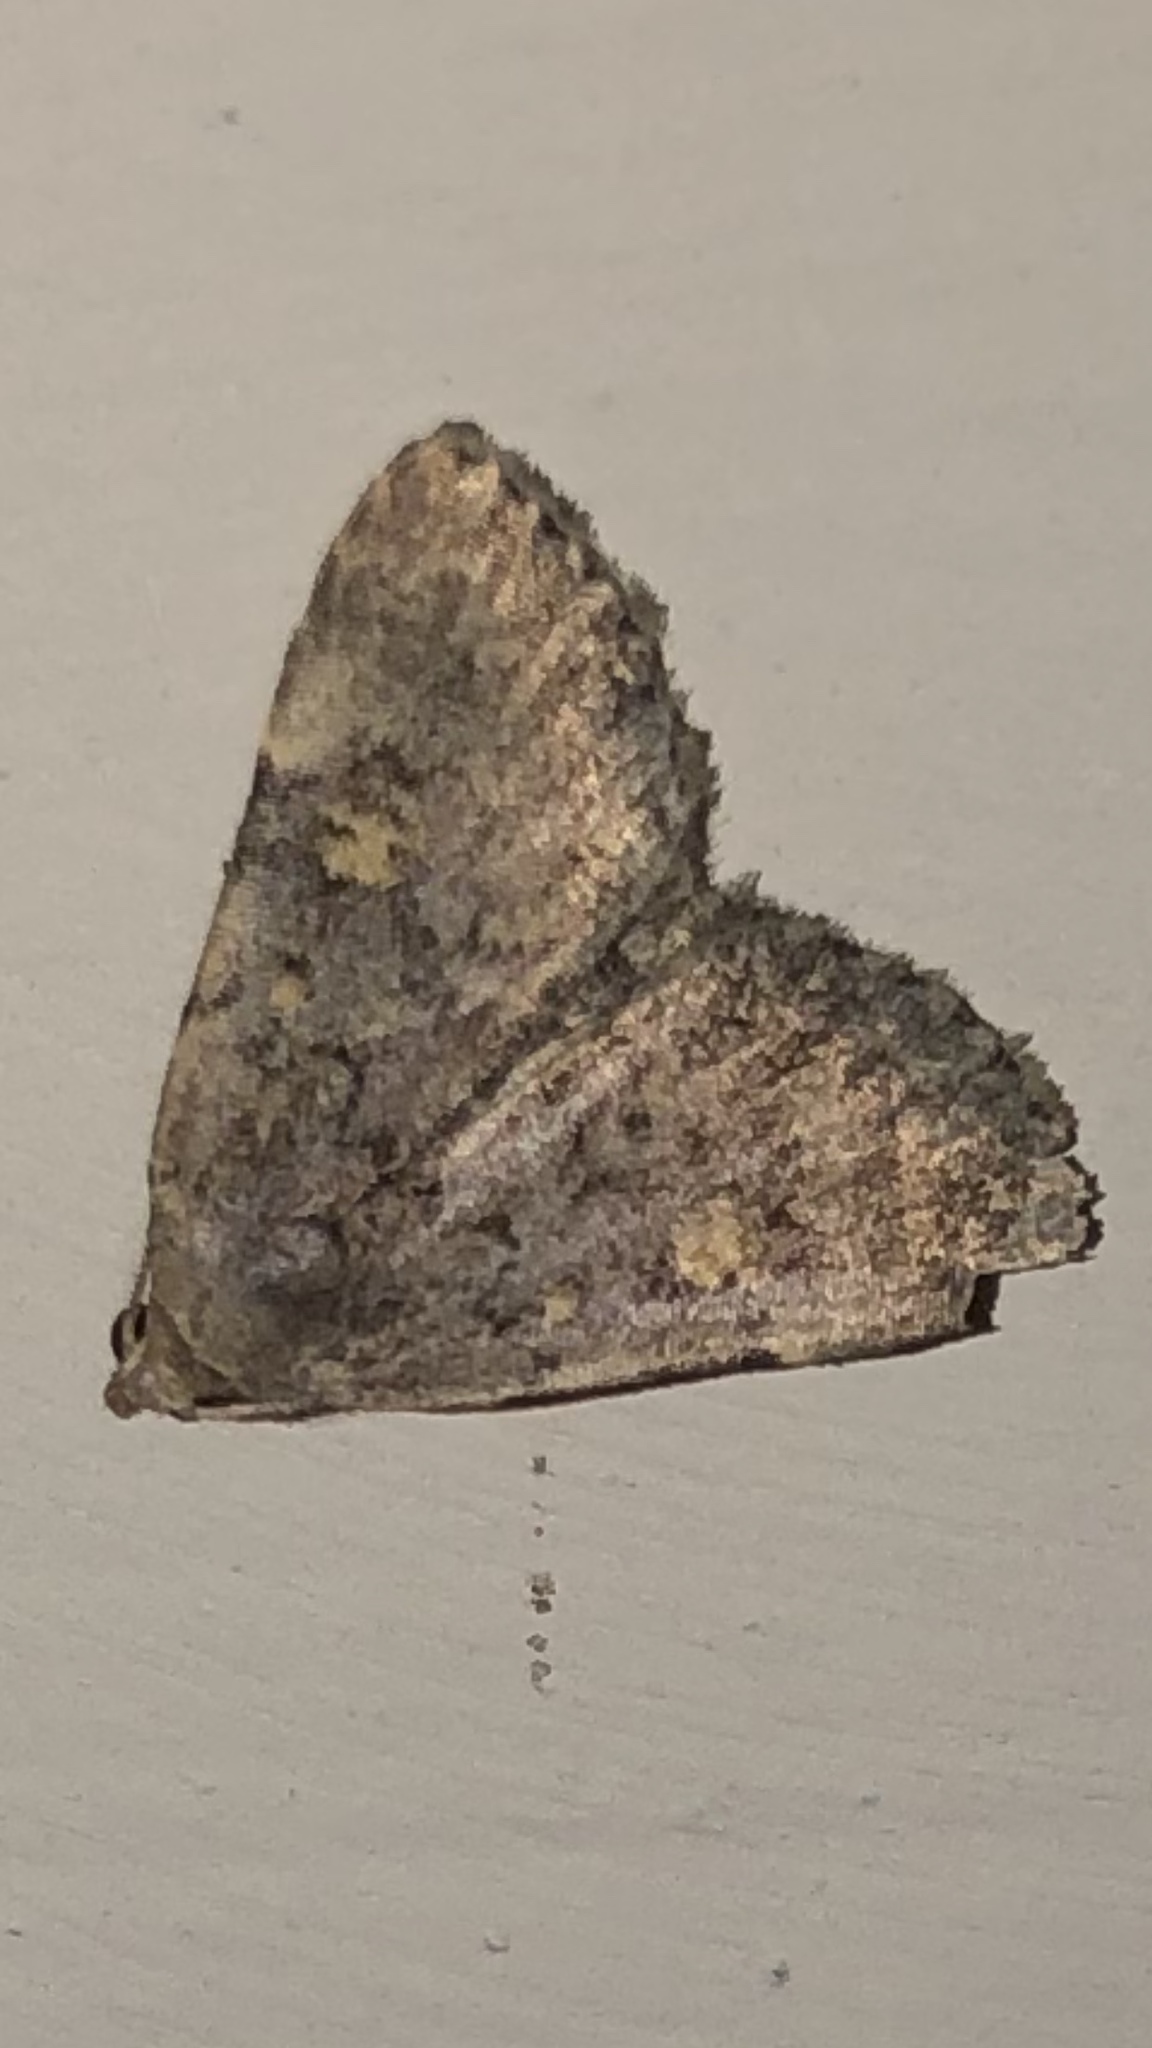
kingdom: Animalia
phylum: Arthropoda
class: Insecta
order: Lepidoptera
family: Erebidae
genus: Idia
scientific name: Idia aemula
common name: Common idia moth
